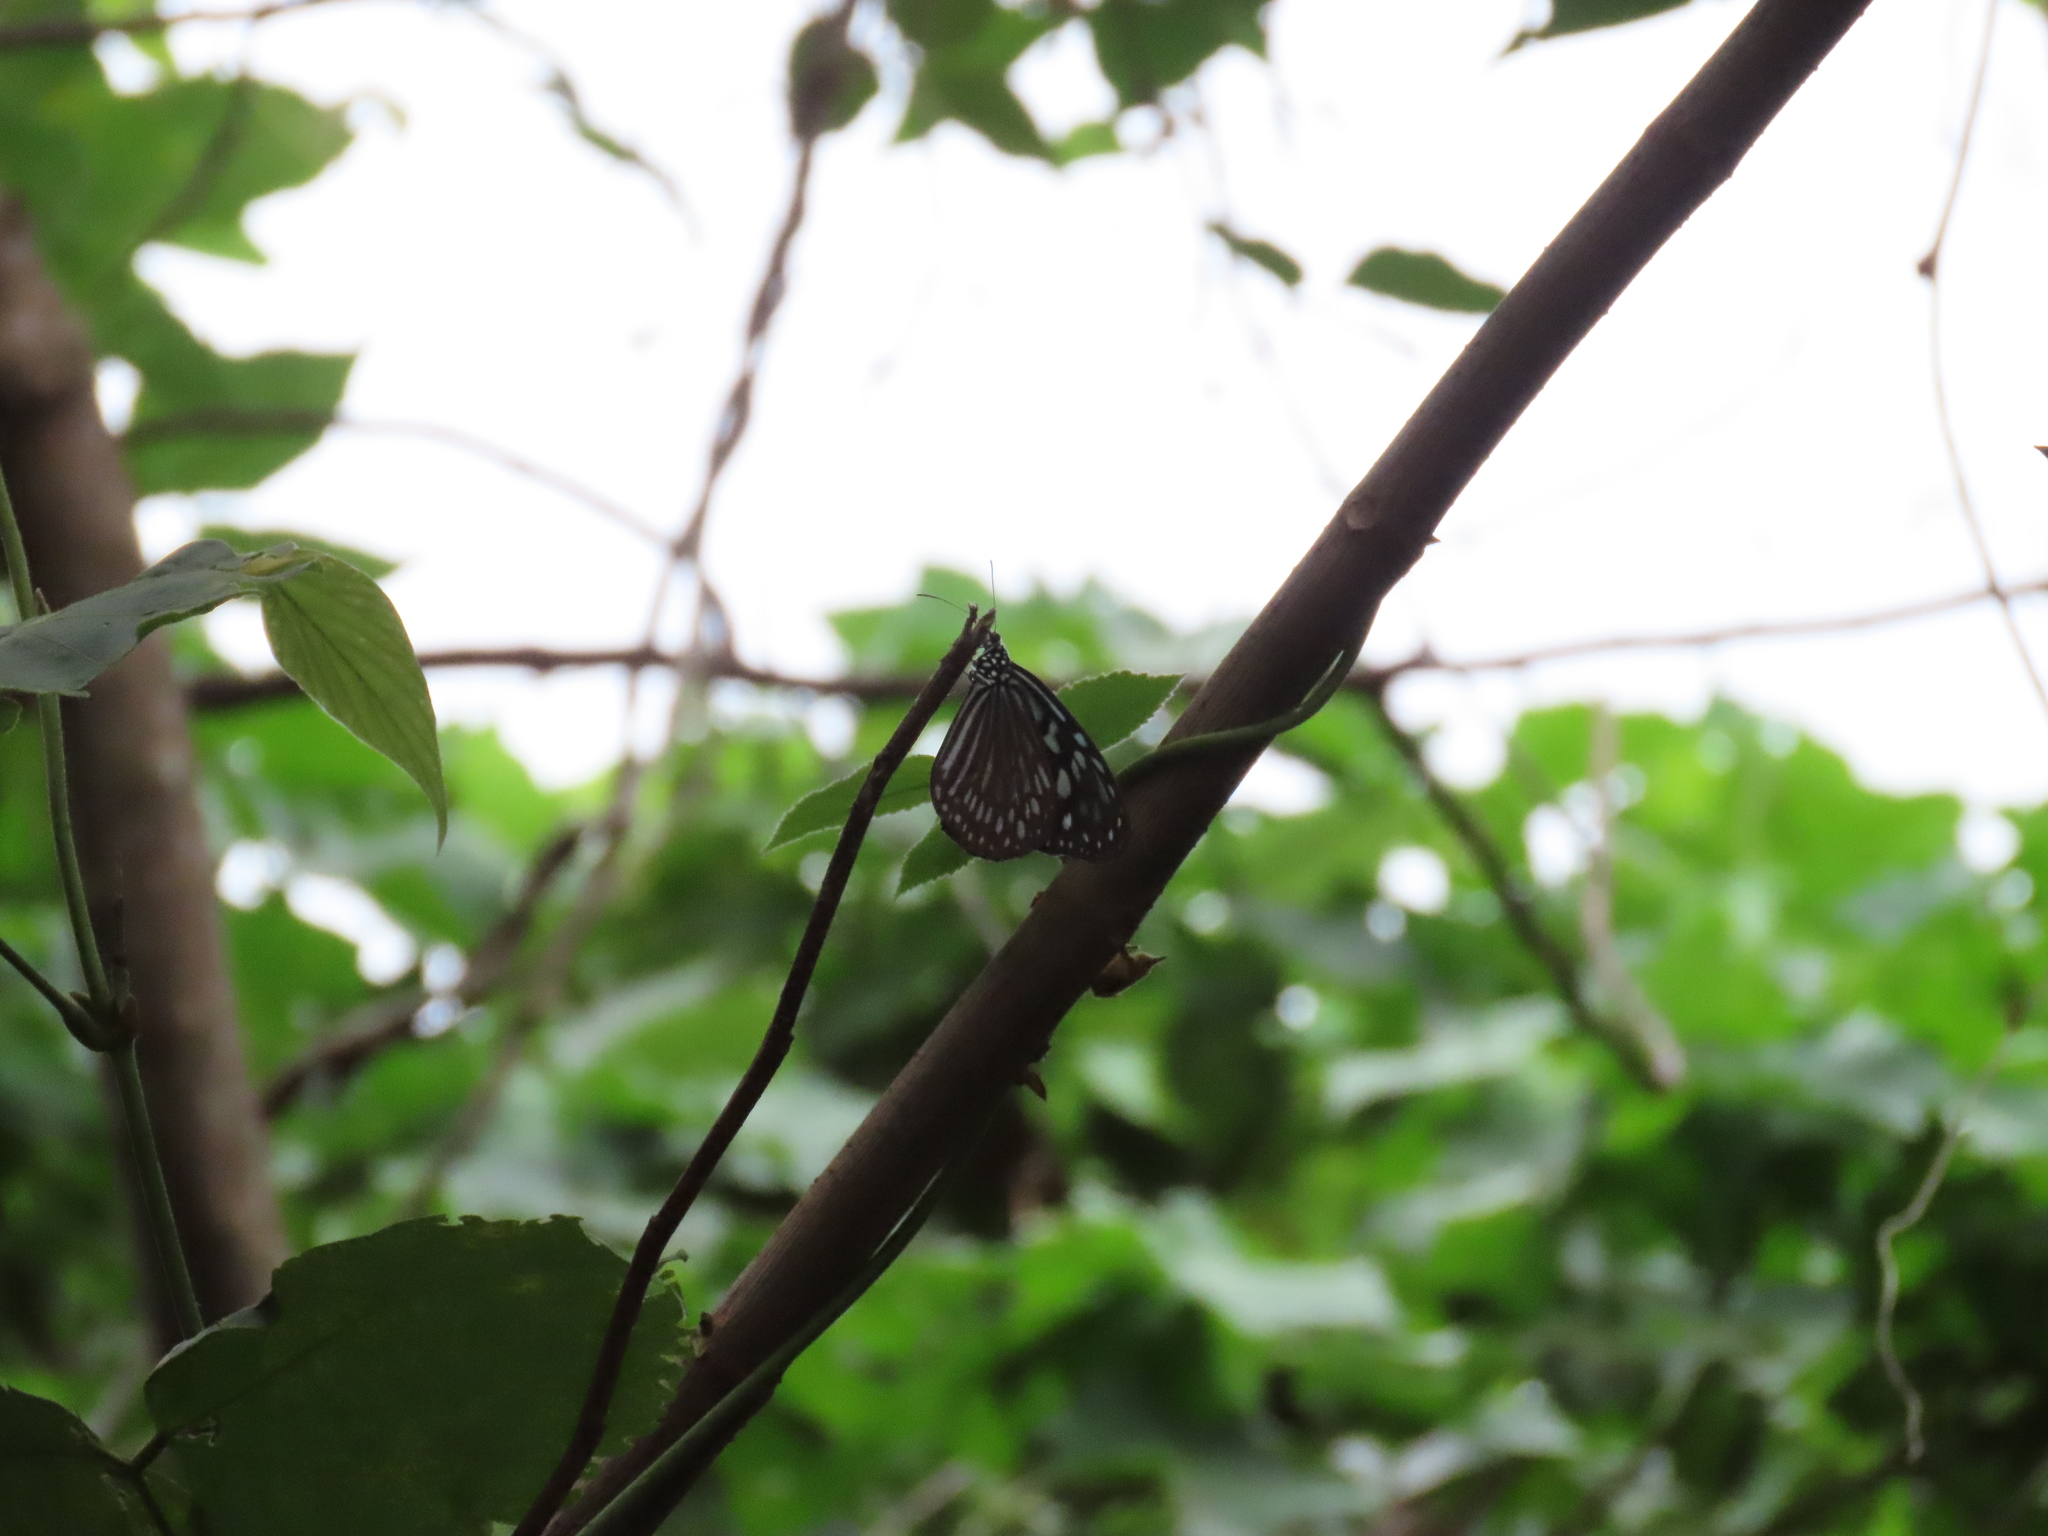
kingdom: Animalia
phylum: Arthropoda
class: Insecta
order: Lepidoptera
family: Nymphalidae
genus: Ideopsis
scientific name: Ideopsis similis
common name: Ceylon blue glassy tiger
